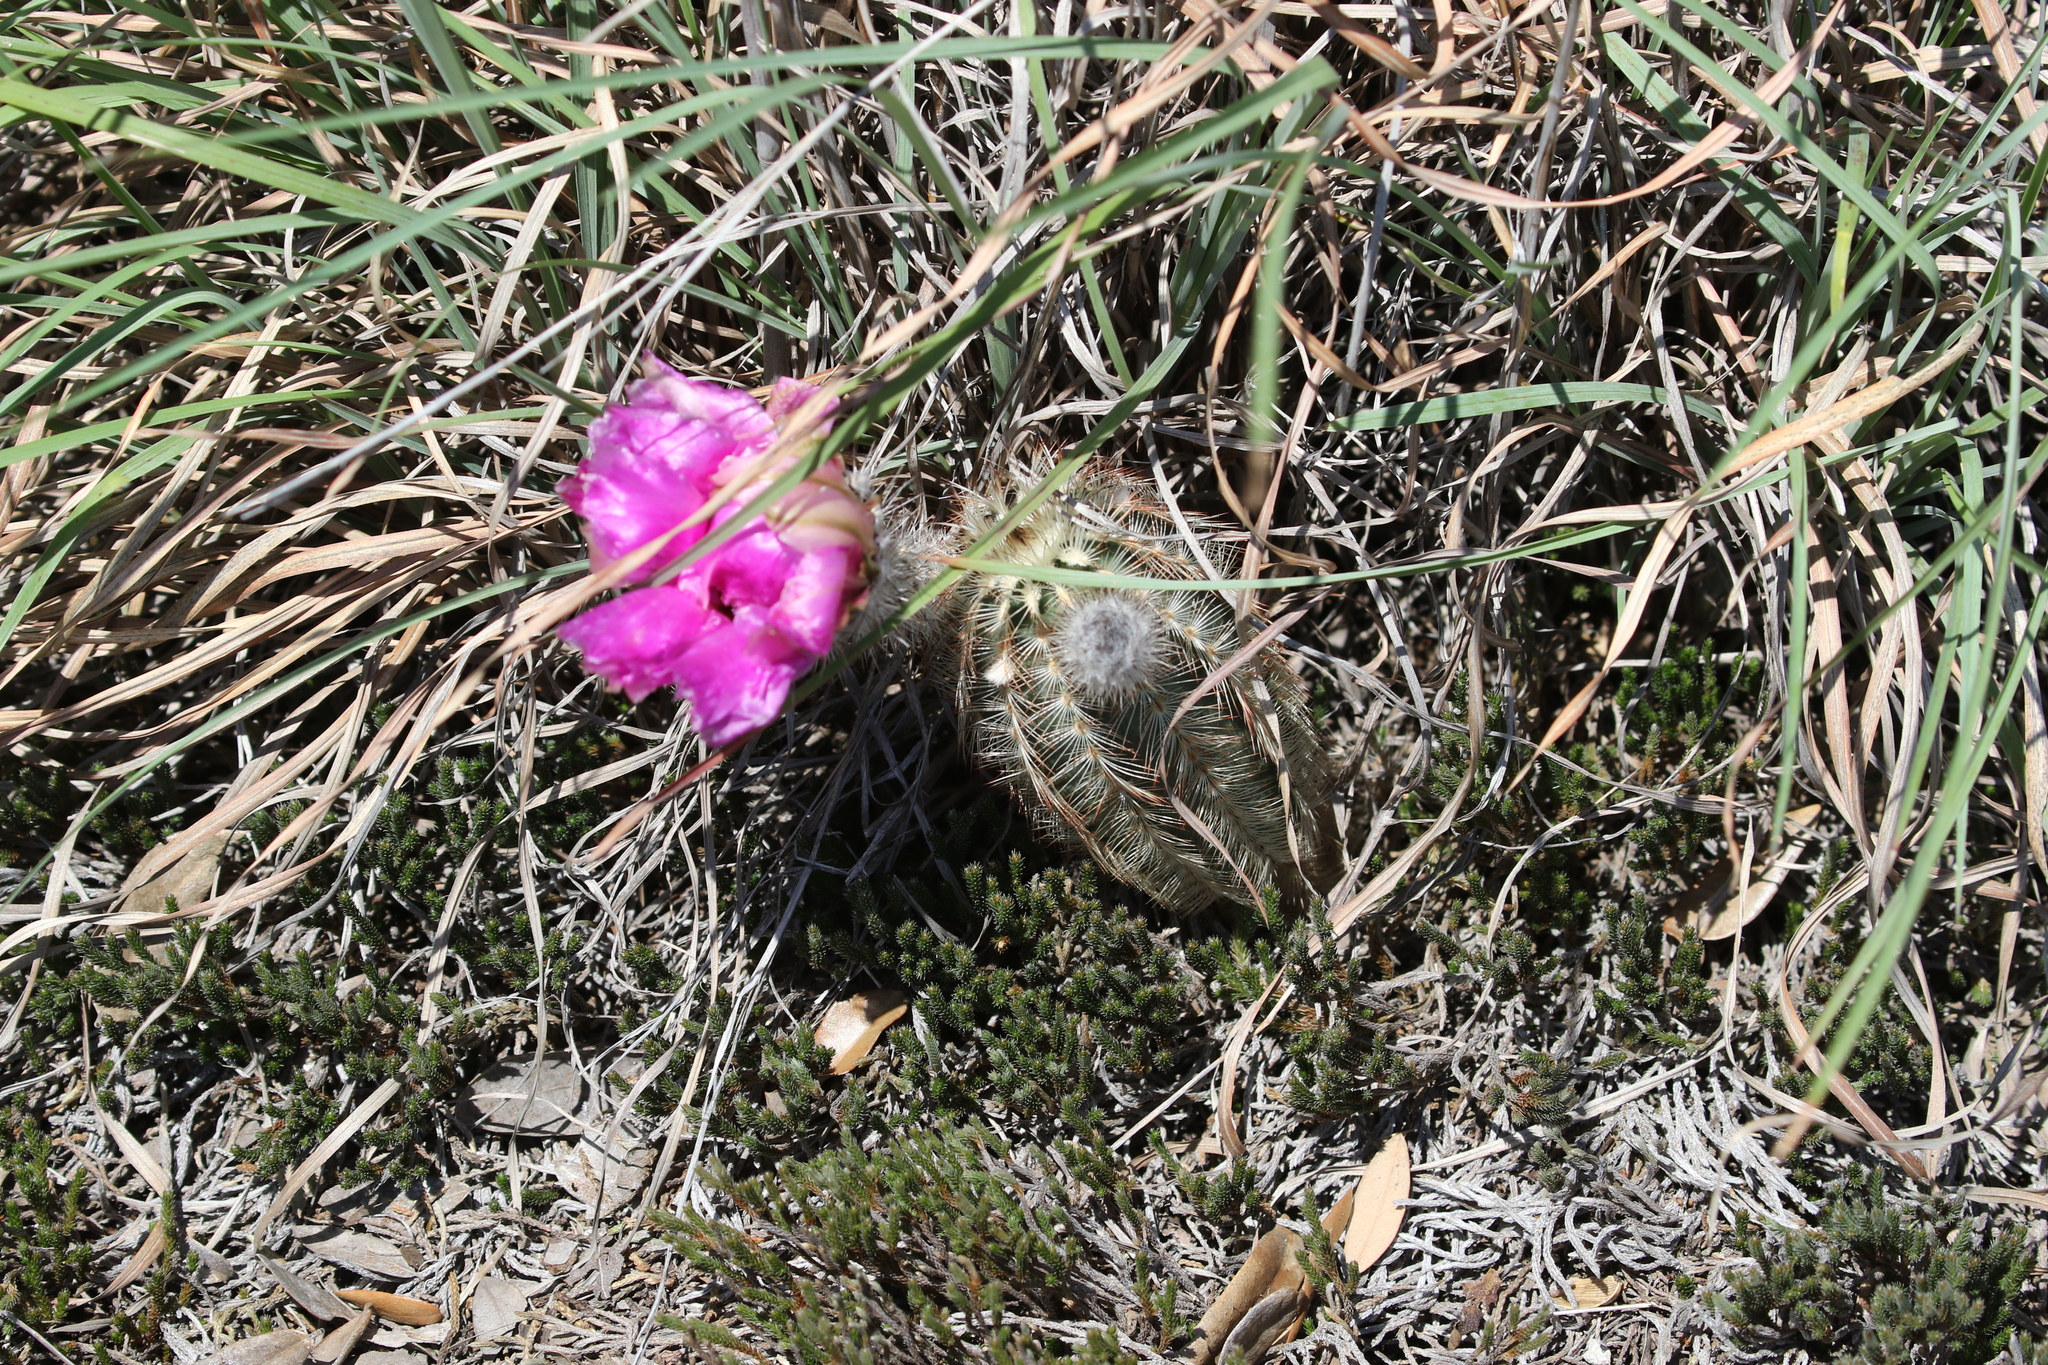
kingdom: Plantae
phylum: Tracheophyta
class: Magnoliopsida
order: Caryophyllales
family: Cactaceae
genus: Echinocereus
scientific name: Echinocereus reichenbachii
